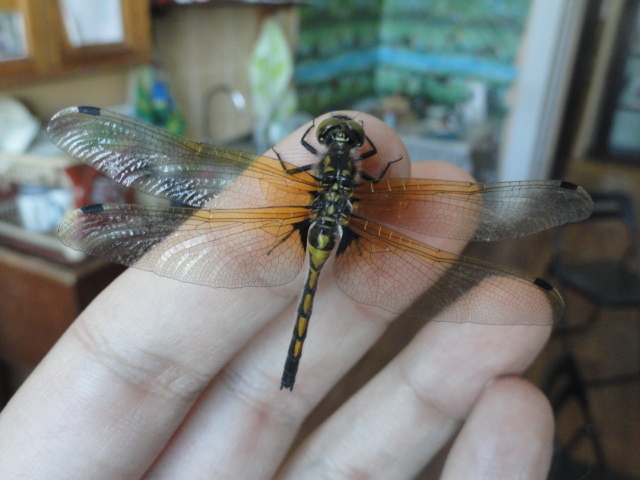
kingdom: Animalia
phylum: Arthropoda
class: Insecta
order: Odonata
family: Libellulidae
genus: Leucorrhinia
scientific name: Leucorrhinia rubicunda
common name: Ruby whiteface
